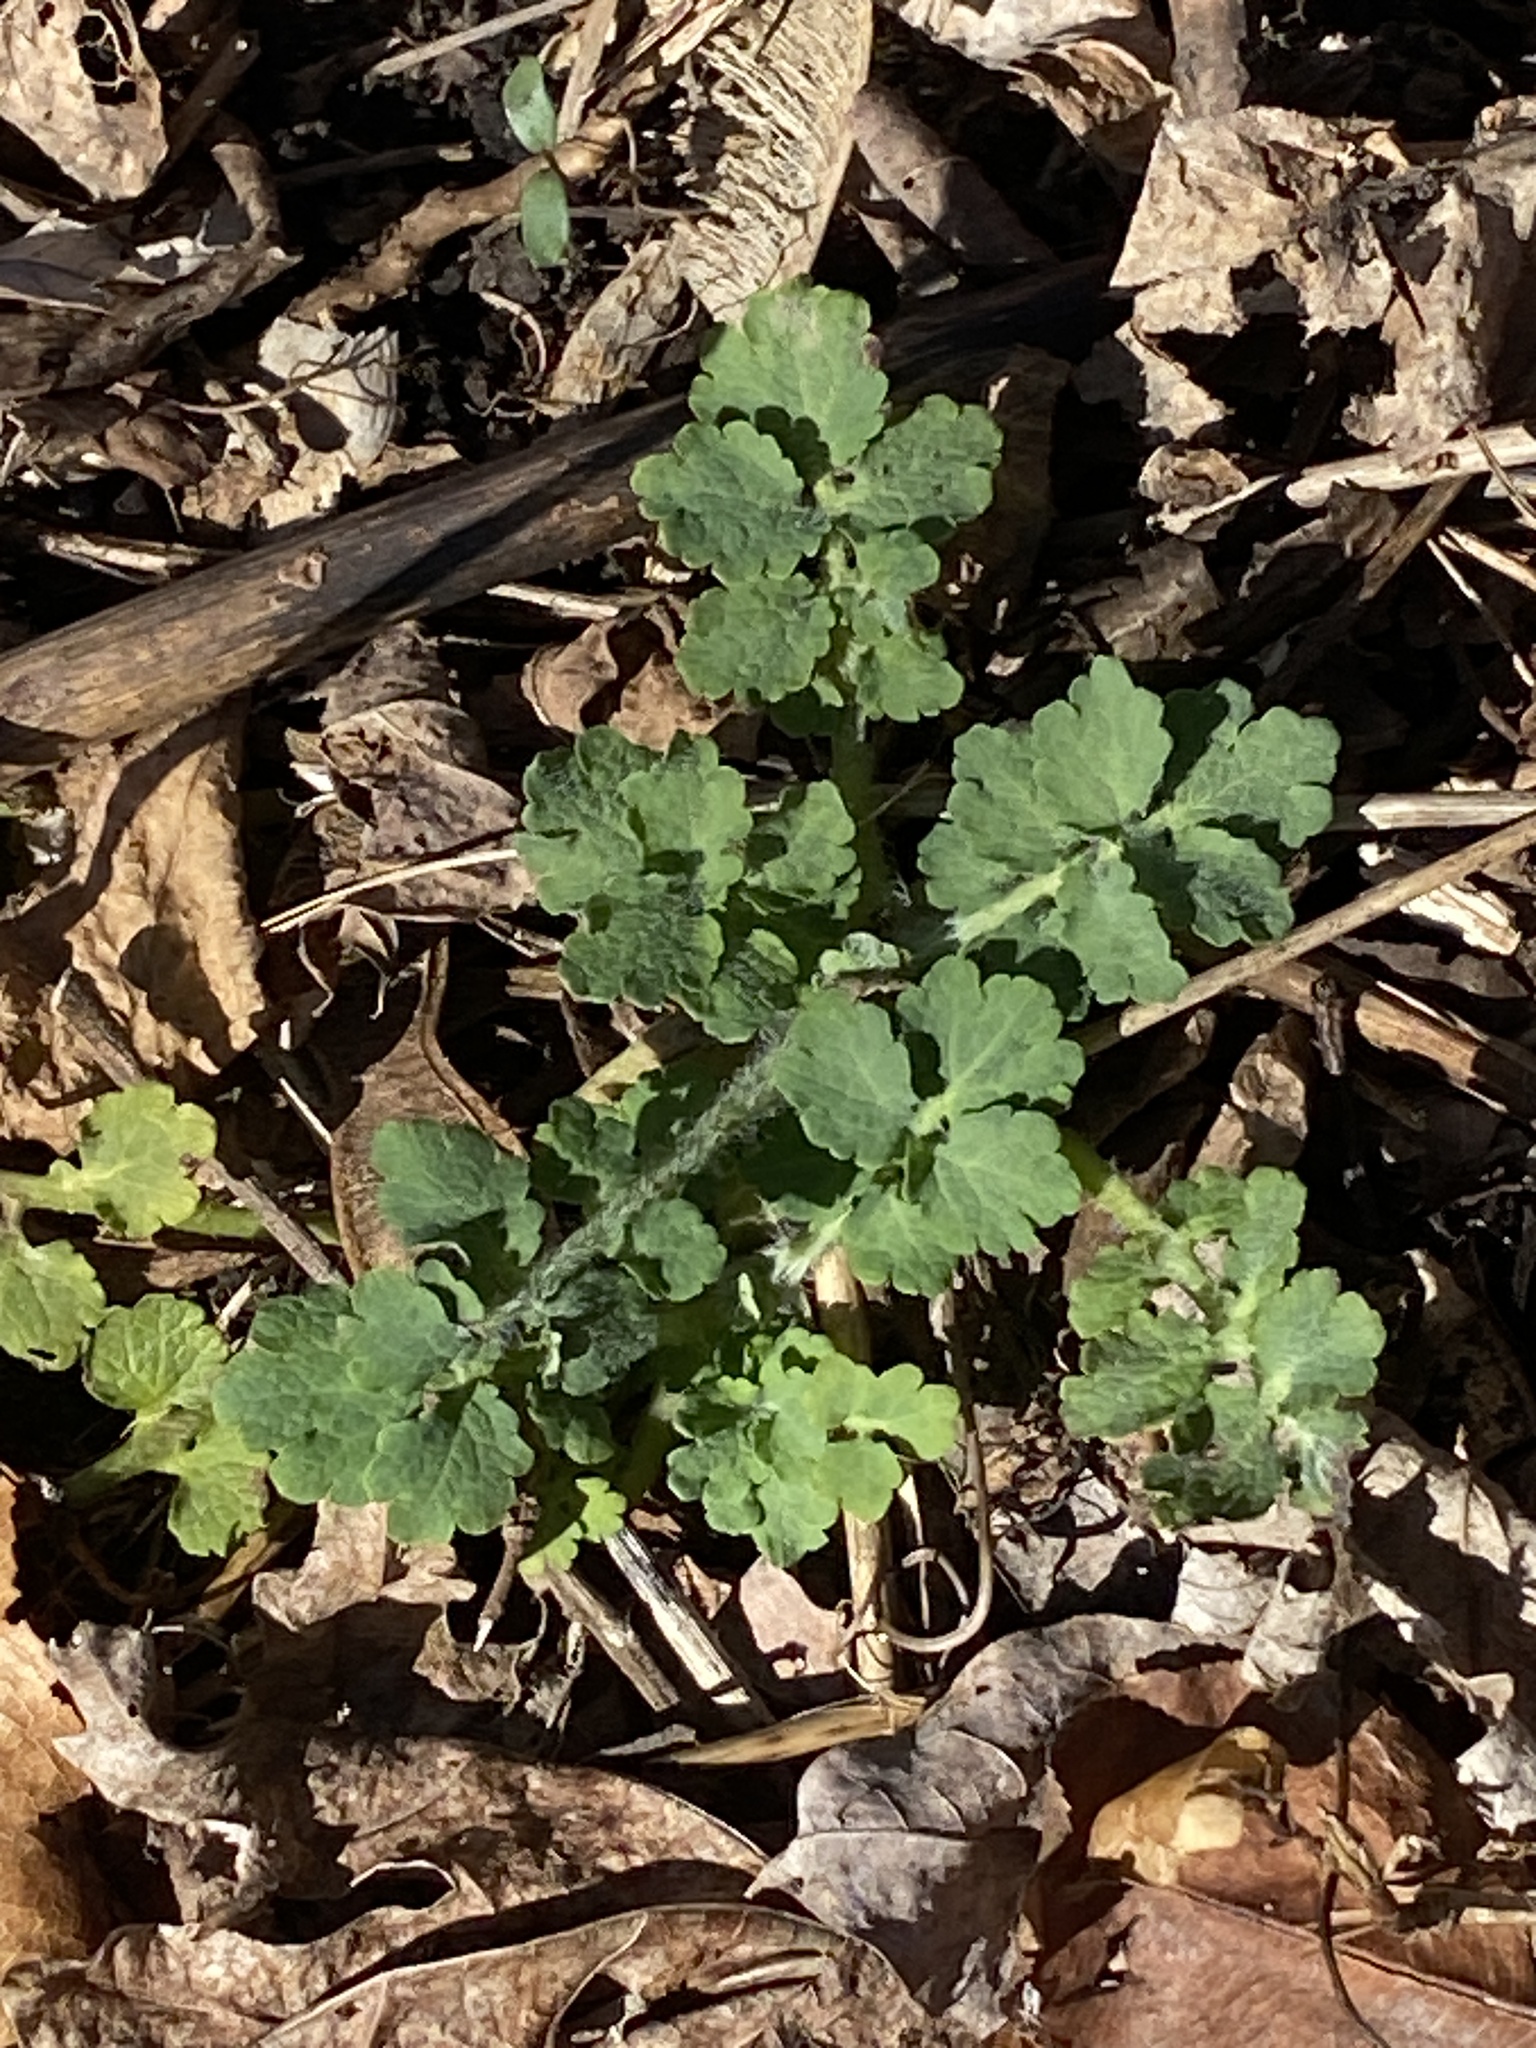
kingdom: Plantae
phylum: Tracheophyta
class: Magnoliopsida
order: Ranunculales
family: Papaveraceae
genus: Chelidonium
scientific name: Chelidonium majus
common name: Greater celandine
